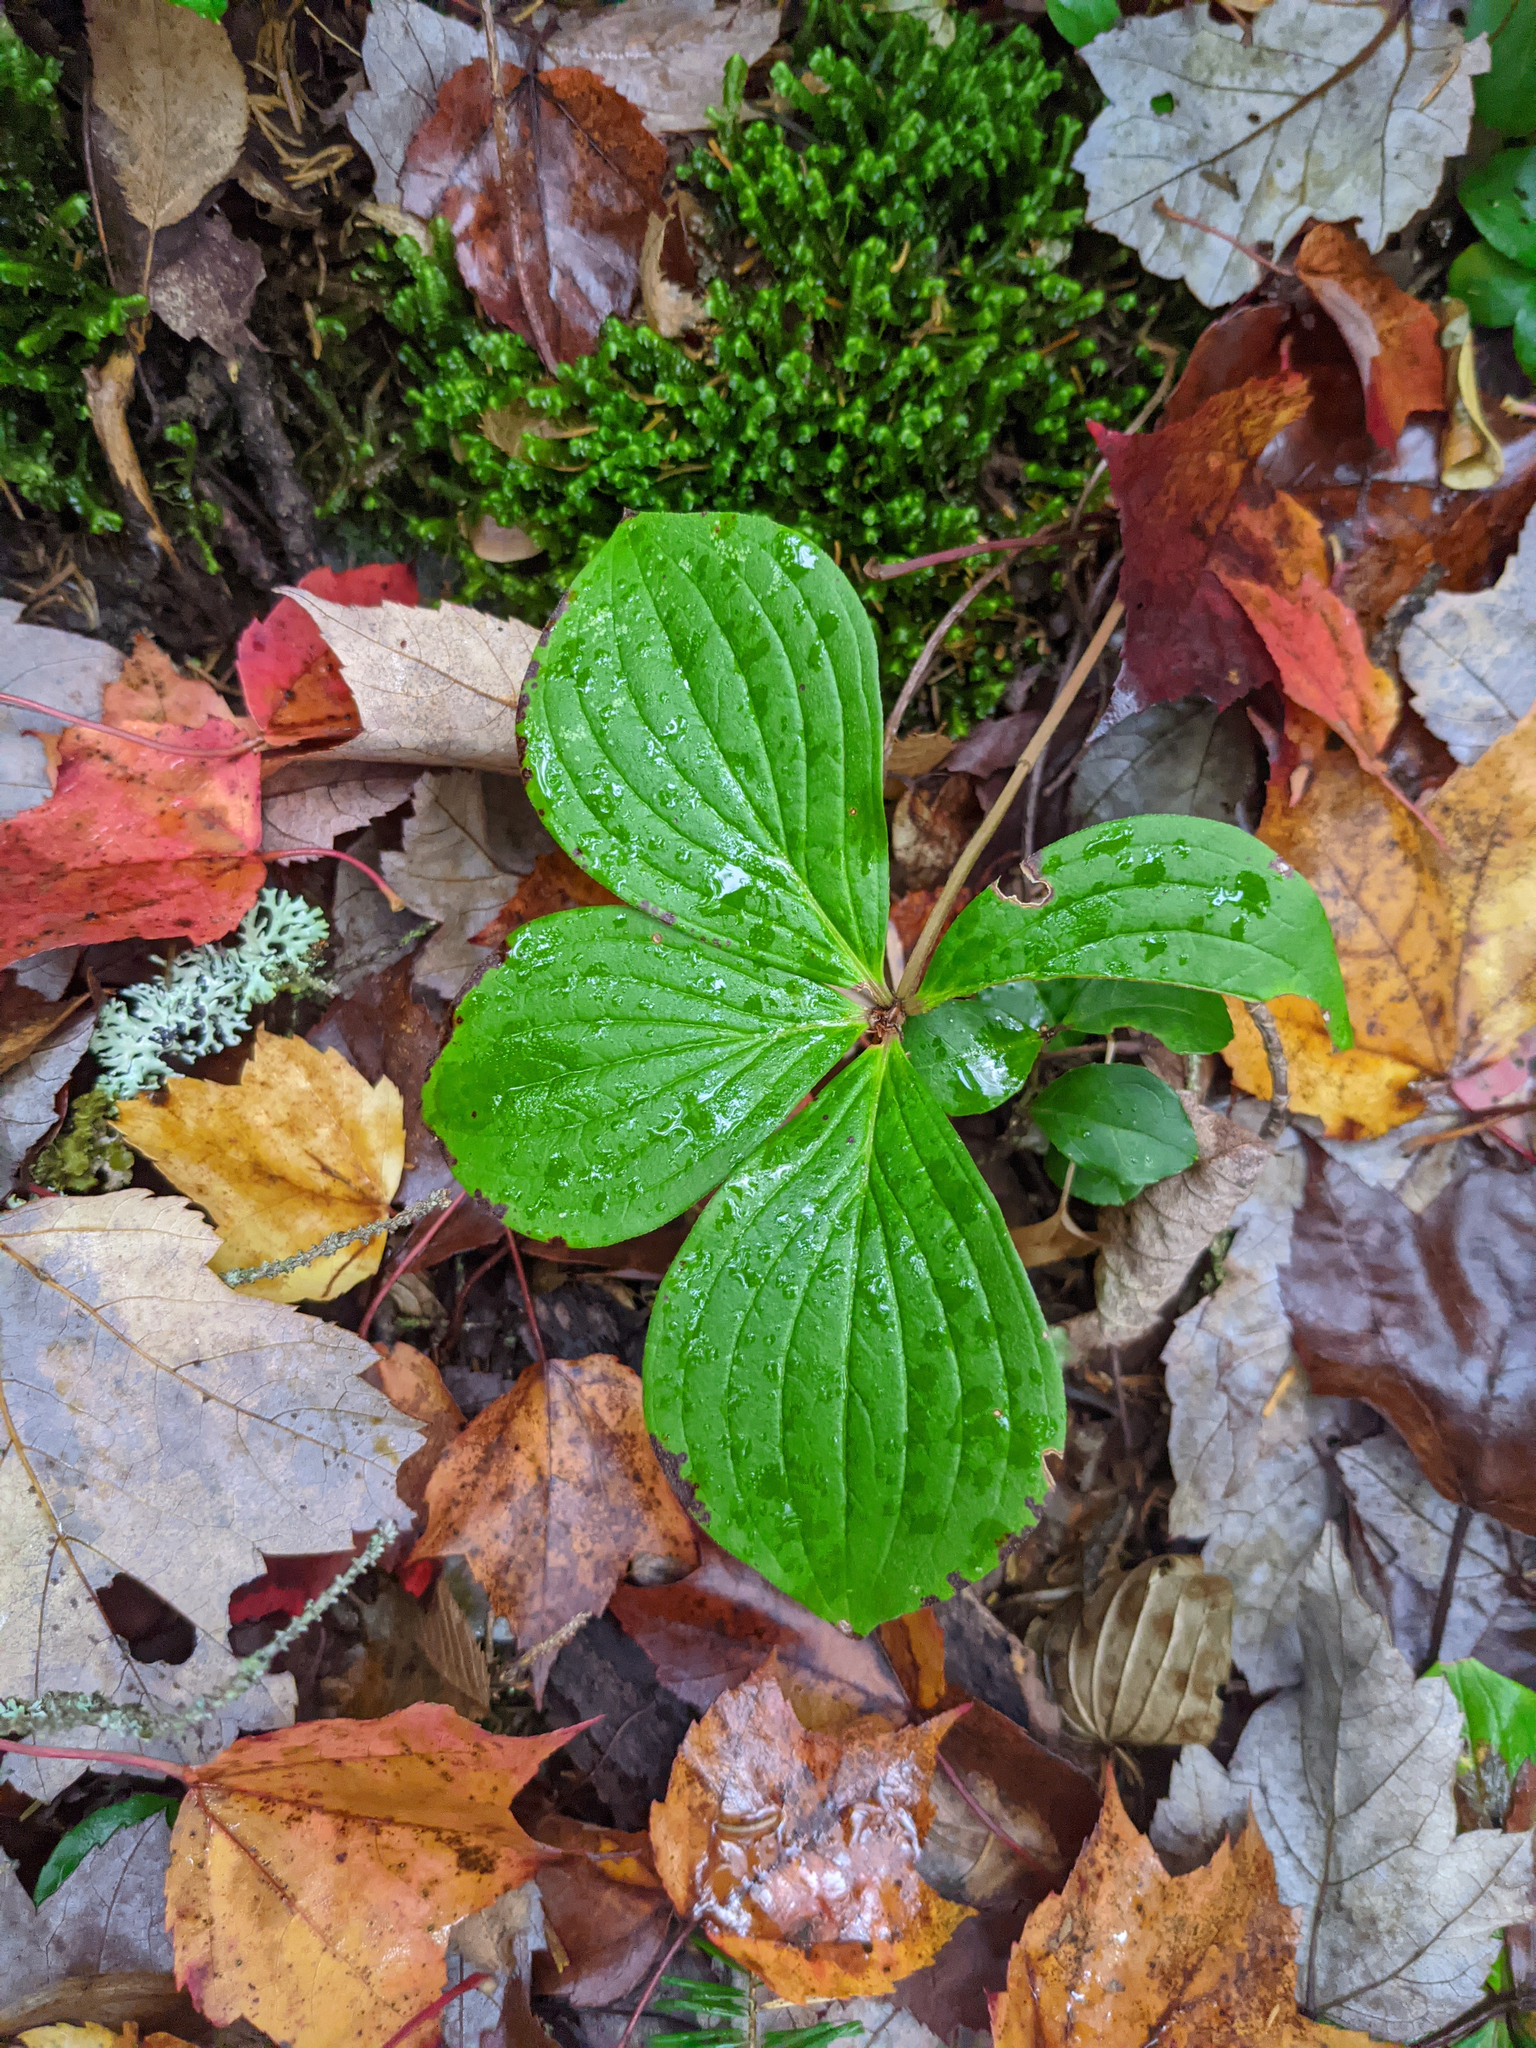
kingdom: Plantae
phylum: Tracheophyta
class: Magnoliopsida
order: Cornales
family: Cornaceae
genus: Cornus
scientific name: Cornus canadensis
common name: Creeping dogwood
